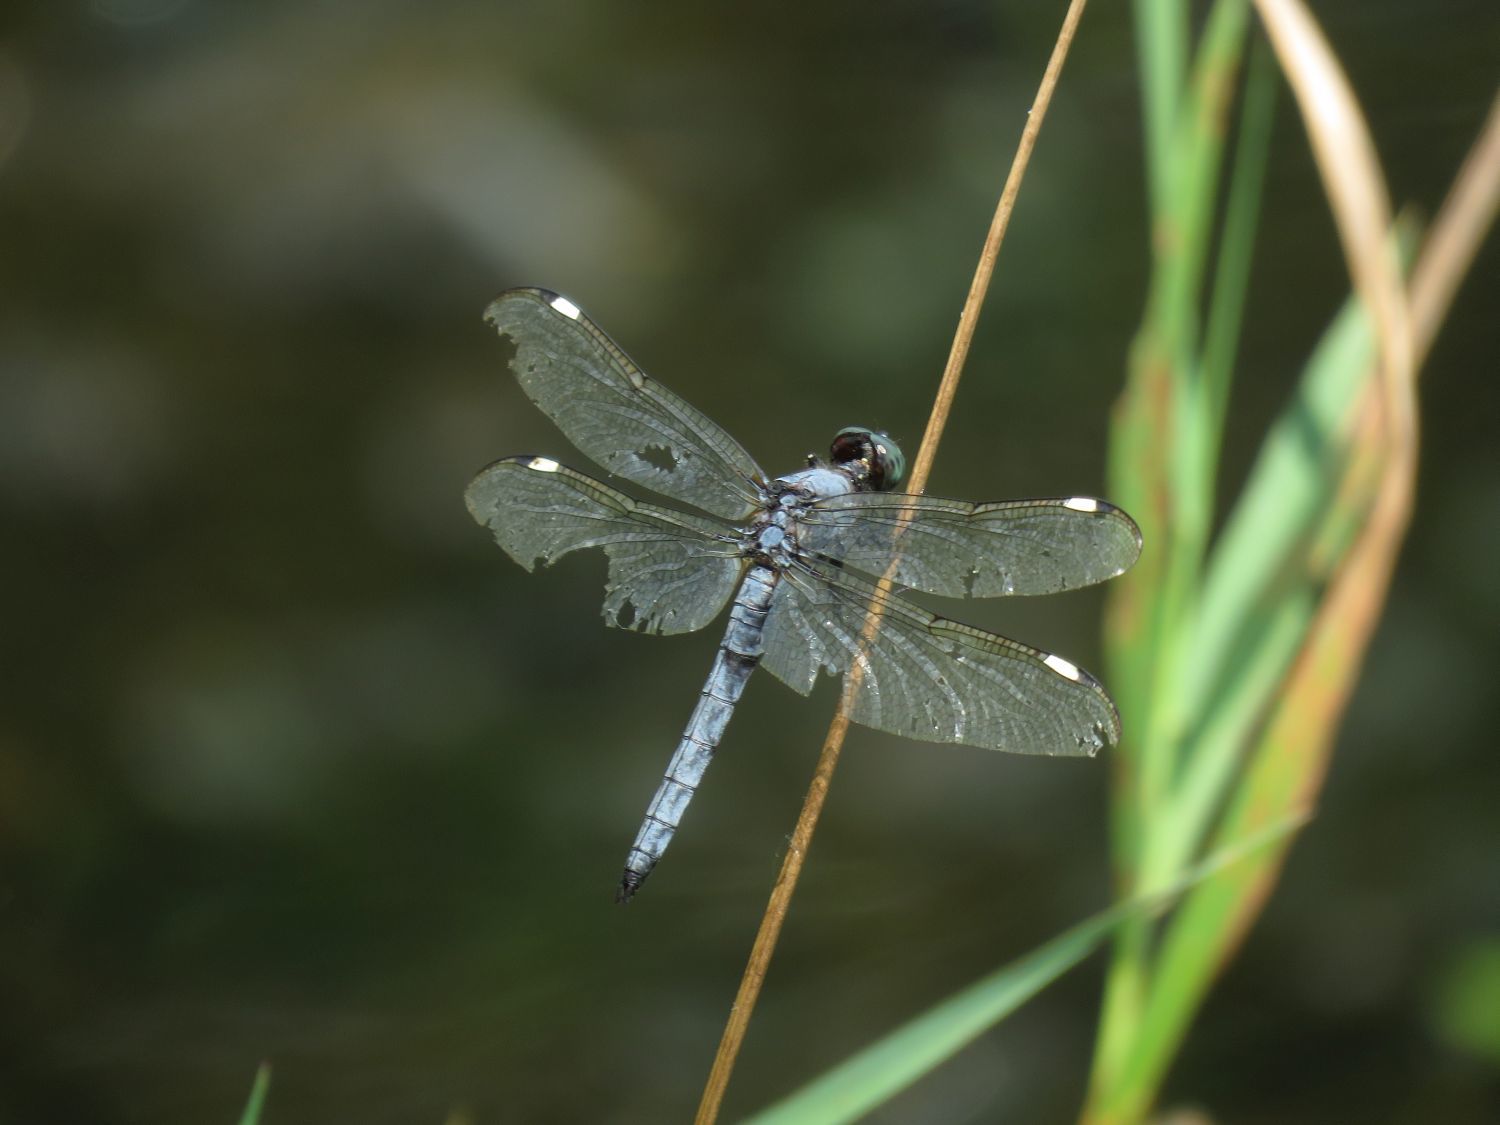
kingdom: Animalia
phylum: Arthropoda
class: Insecta
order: Odonata
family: Libellulidae
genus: Libellula
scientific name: Libellula cyanea
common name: Spangled skimmer
